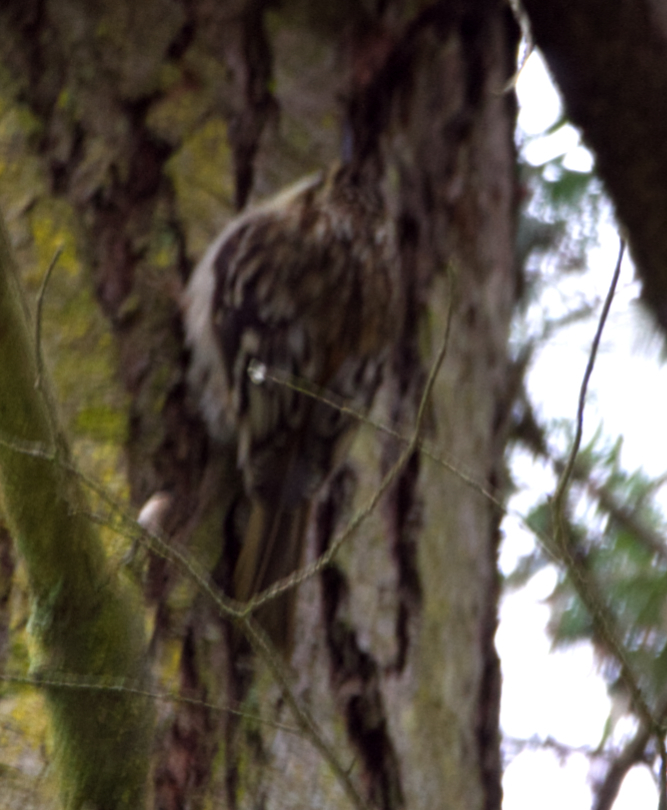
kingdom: Animalia
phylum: Chordata
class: Aves
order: Passeriformes
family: Certhiidae
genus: Certhia
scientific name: Certhia americana
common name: Brown creeper
